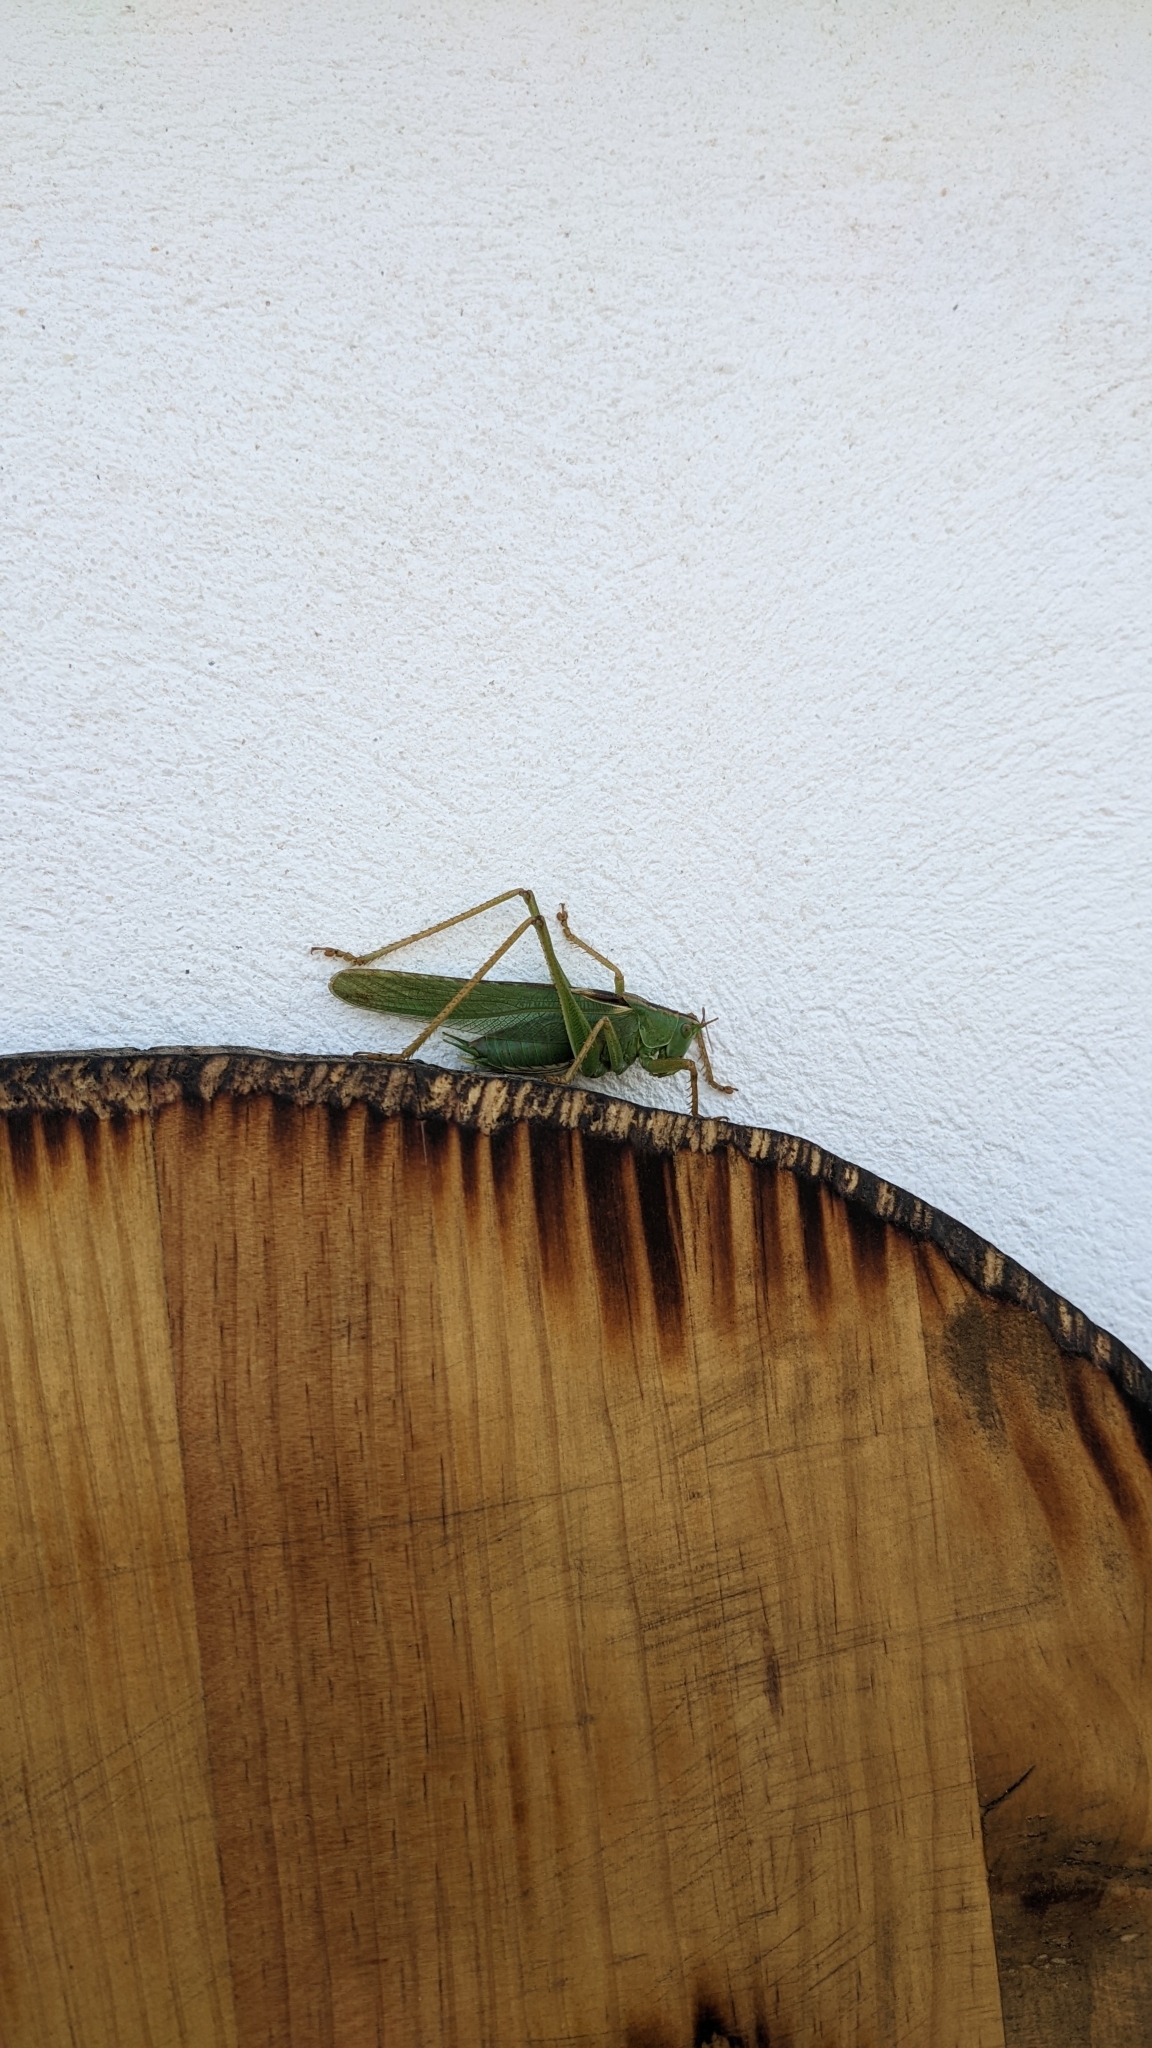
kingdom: Animalia
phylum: Arthropoda
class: Insecta
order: Orthoptera
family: Tettigoniidae
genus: Tettigonia
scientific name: Tettigonia viridissima
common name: Great green bush-cricket
